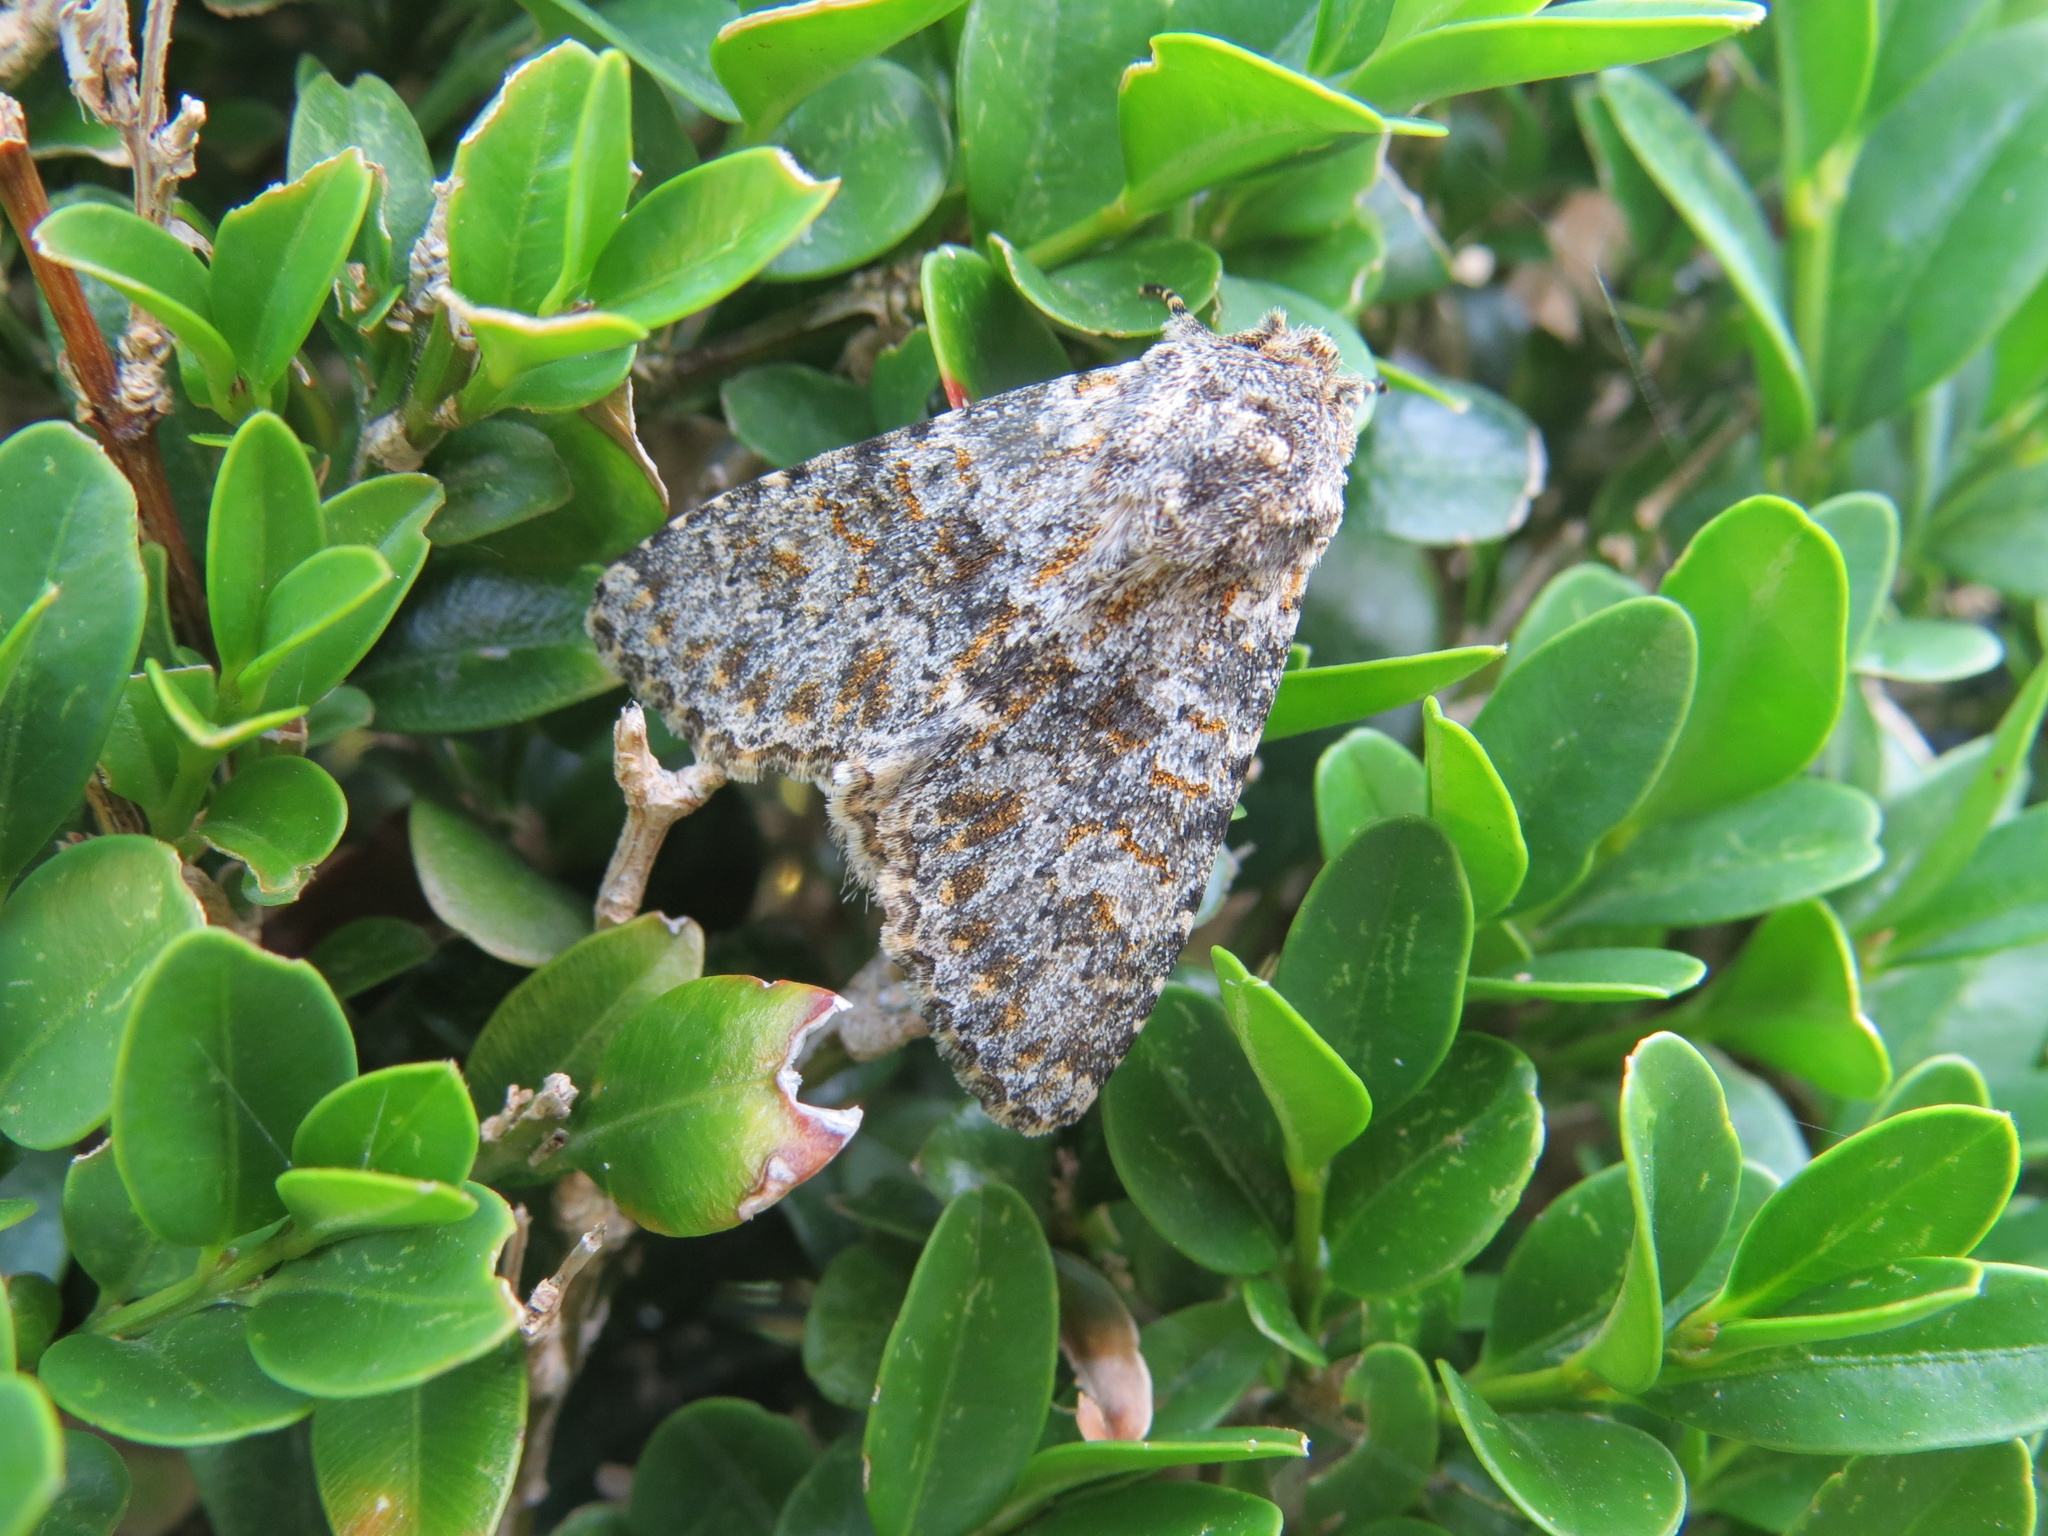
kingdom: Animalia
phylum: Arthropoda
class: Insecta
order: Lepidoptera
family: Noctuidae
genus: Polymixis
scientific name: Polymixis flavicincta
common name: Large ranunculus
